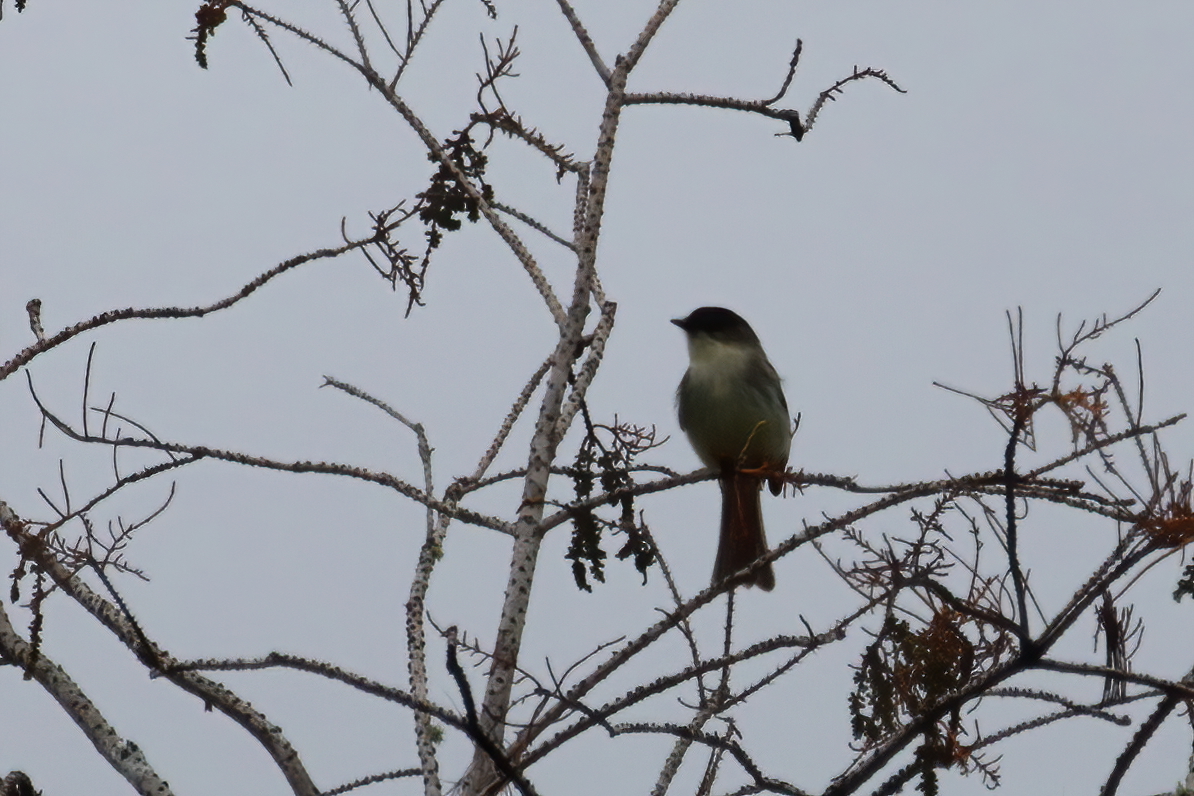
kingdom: Animalia
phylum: Chordata
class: Aves
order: Passeriformes
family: Tyrannidae
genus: Sayornis
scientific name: Sayornis phoebe
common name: Eastern phoebe
